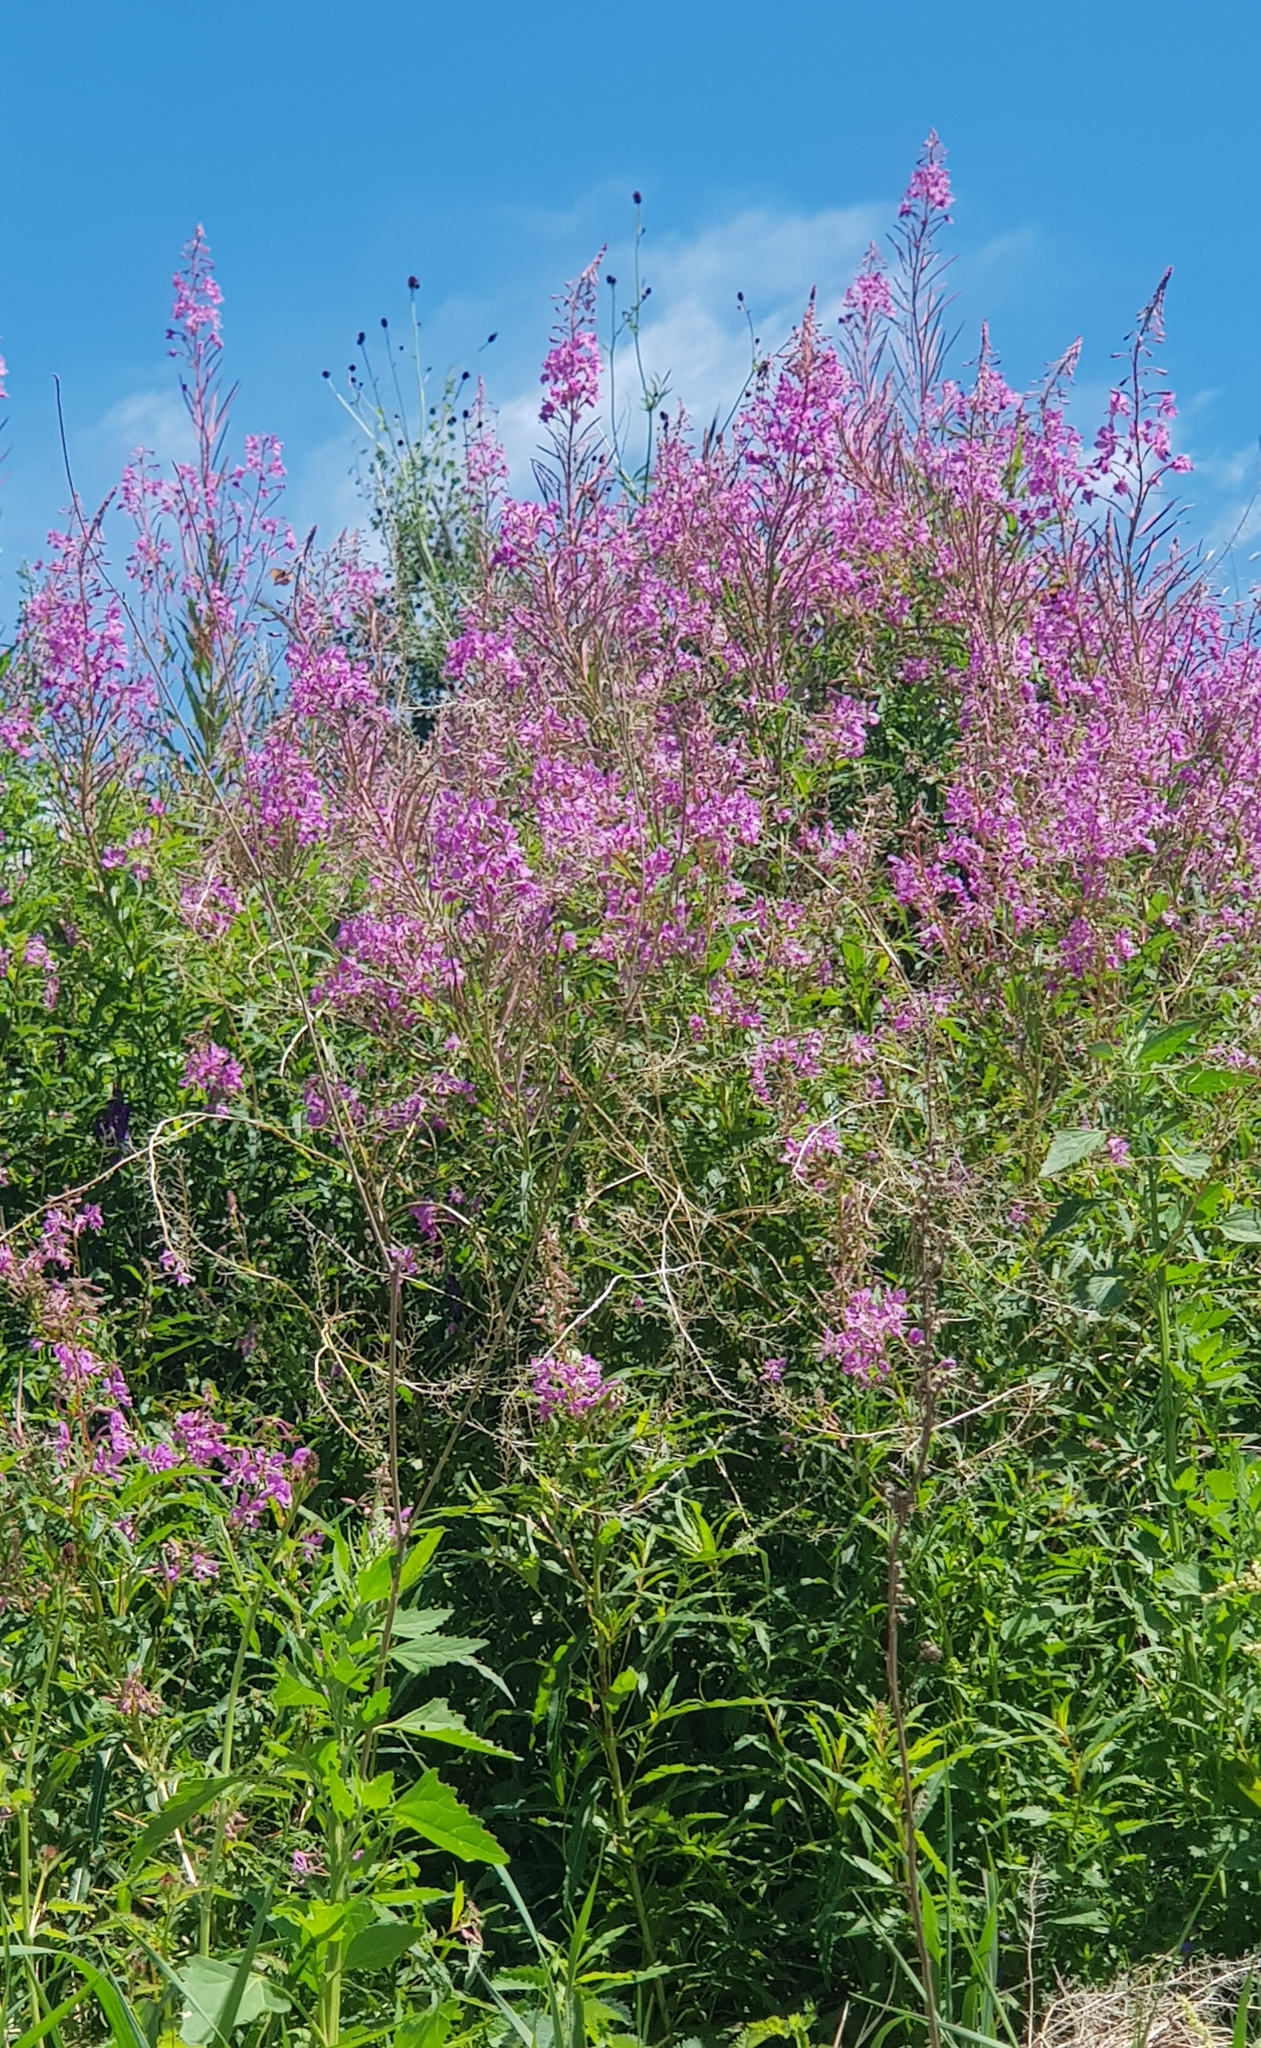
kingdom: Plantae
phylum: Tracheophyta
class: Magnoliopsida
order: Myrtales
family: Onagraceae
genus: Chamaenerion
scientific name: Chamaenerion angustifolium
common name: Fireweed
